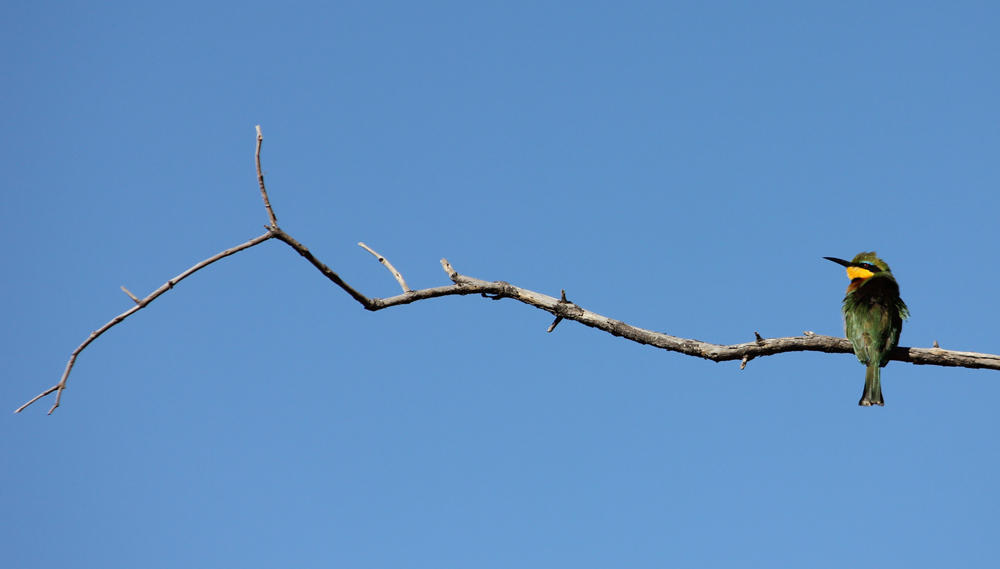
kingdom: Animalia
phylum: Chordata
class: Aves
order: Coraciiformes
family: Meropidae
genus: Merops
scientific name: Merops pusillus
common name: Little bee-eater
